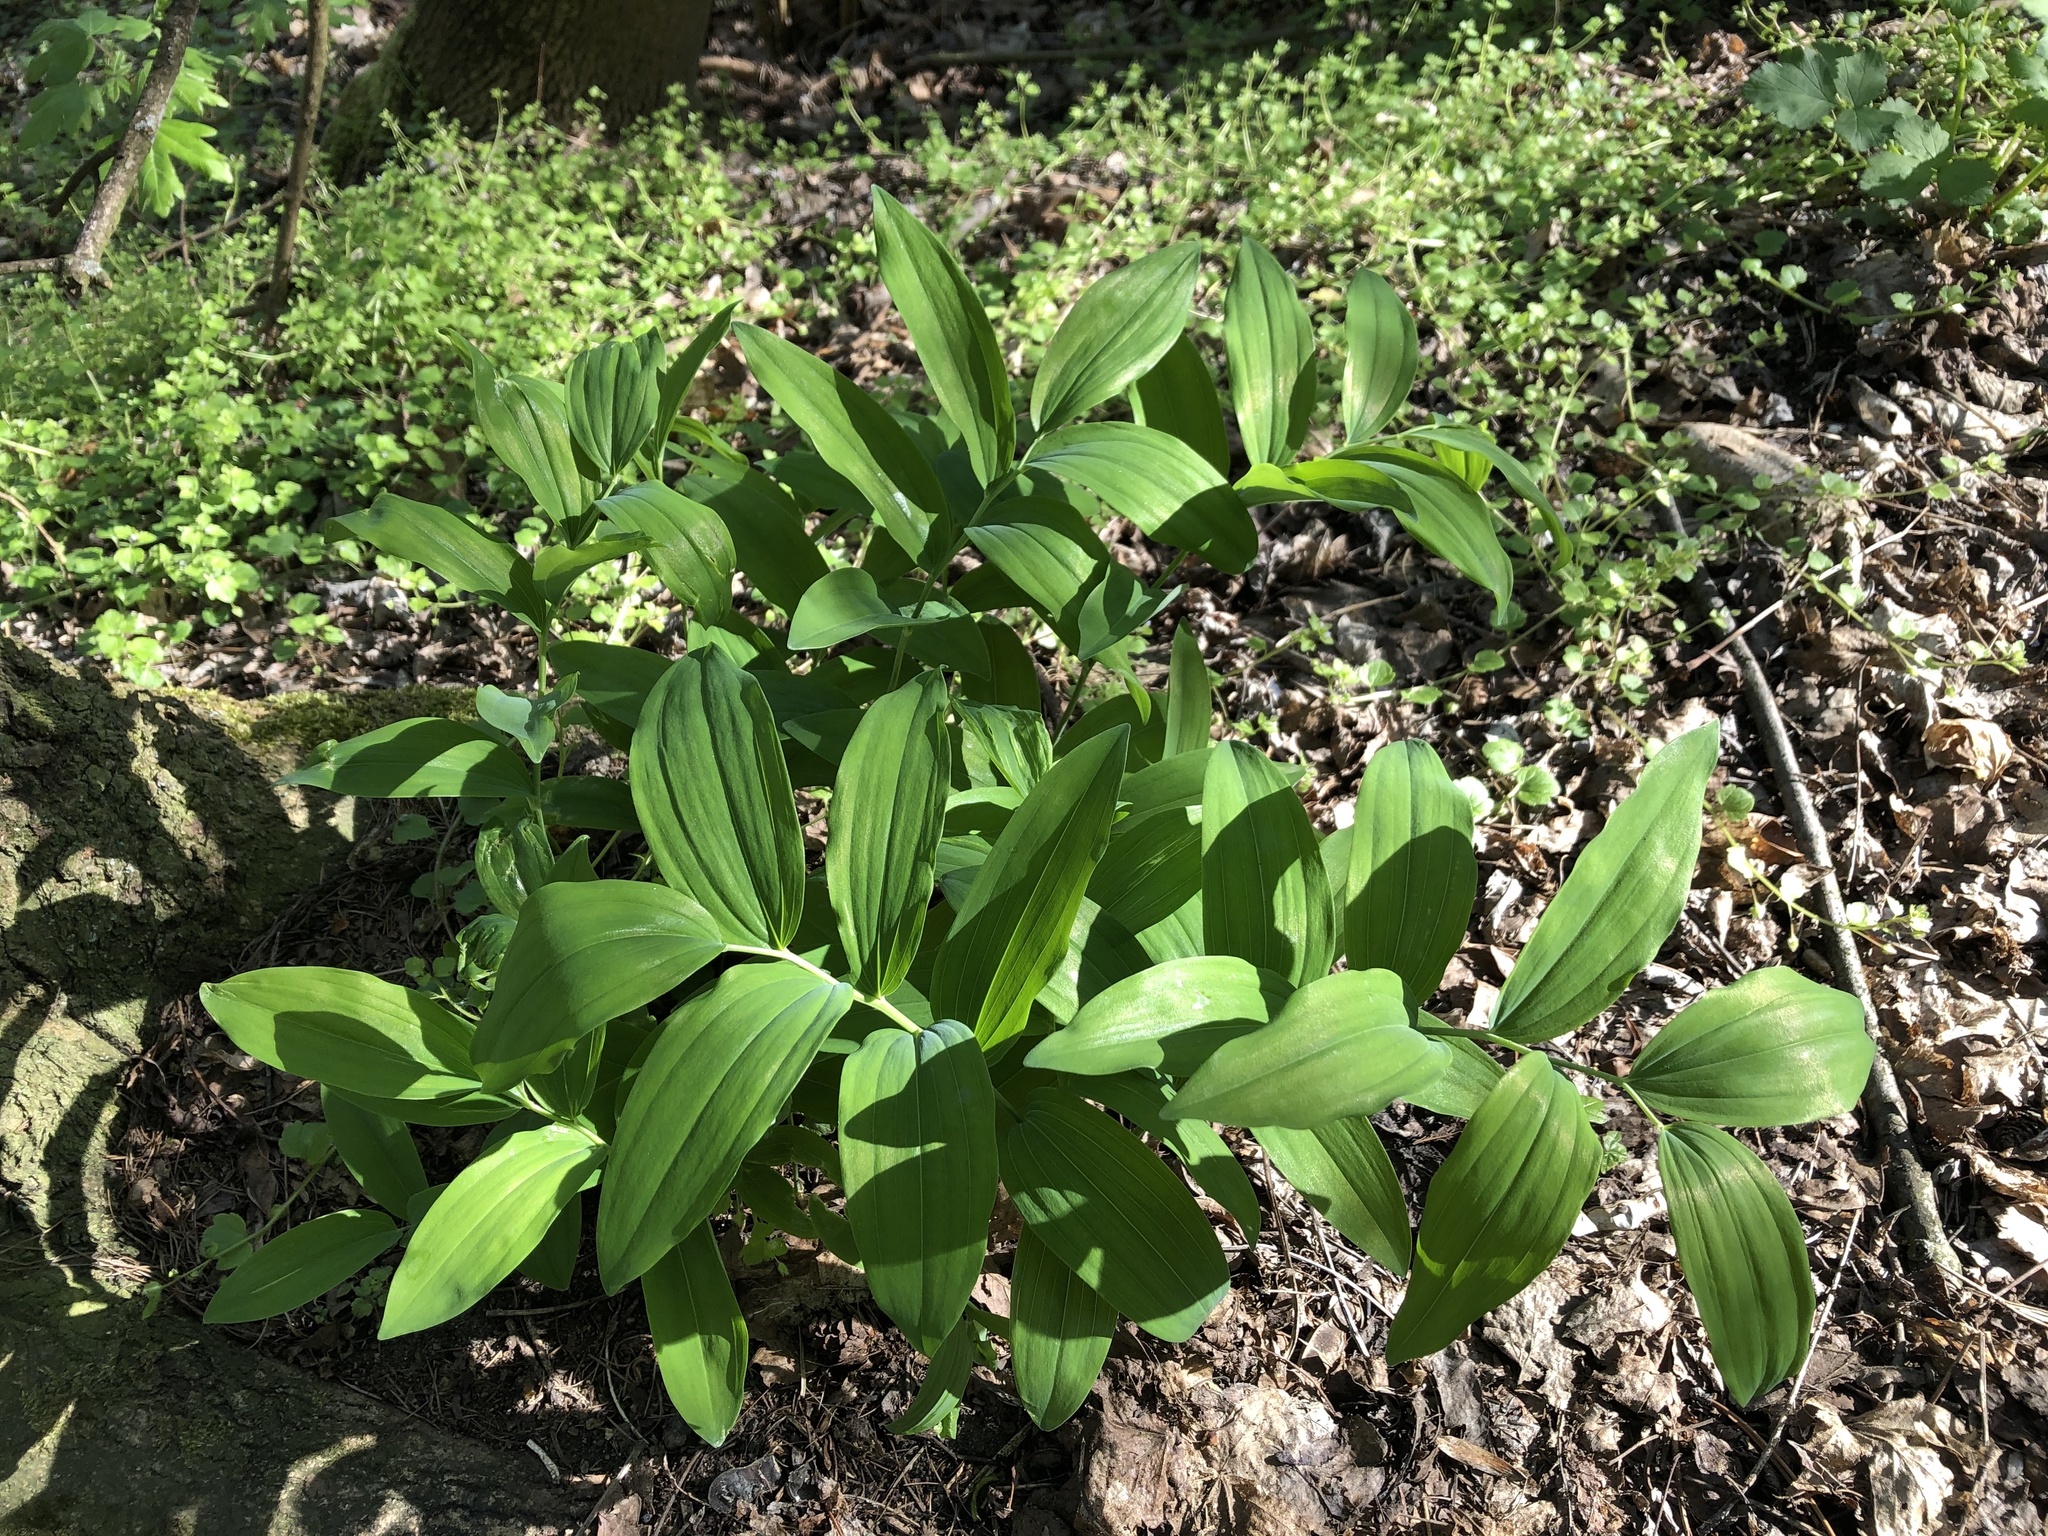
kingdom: Plantae
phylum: Tracheophyta
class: Liliopsida
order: Asparagales
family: Asparagaceae
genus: Polygonatum
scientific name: Polygonatum multiflorum
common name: Solomon's-seal
